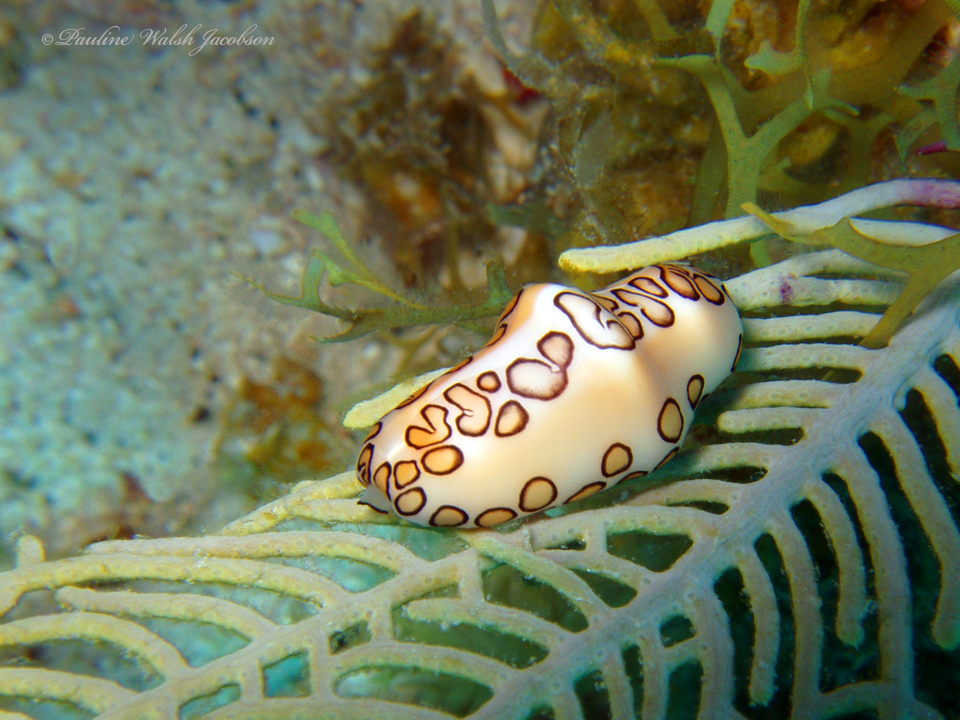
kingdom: Animalia
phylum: Mollusca
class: Gastropoda
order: Littorinimorpha
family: Ovulidae
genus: Cyphoma
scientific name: Cyphoma gibbosum
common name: Flamingo tongue
